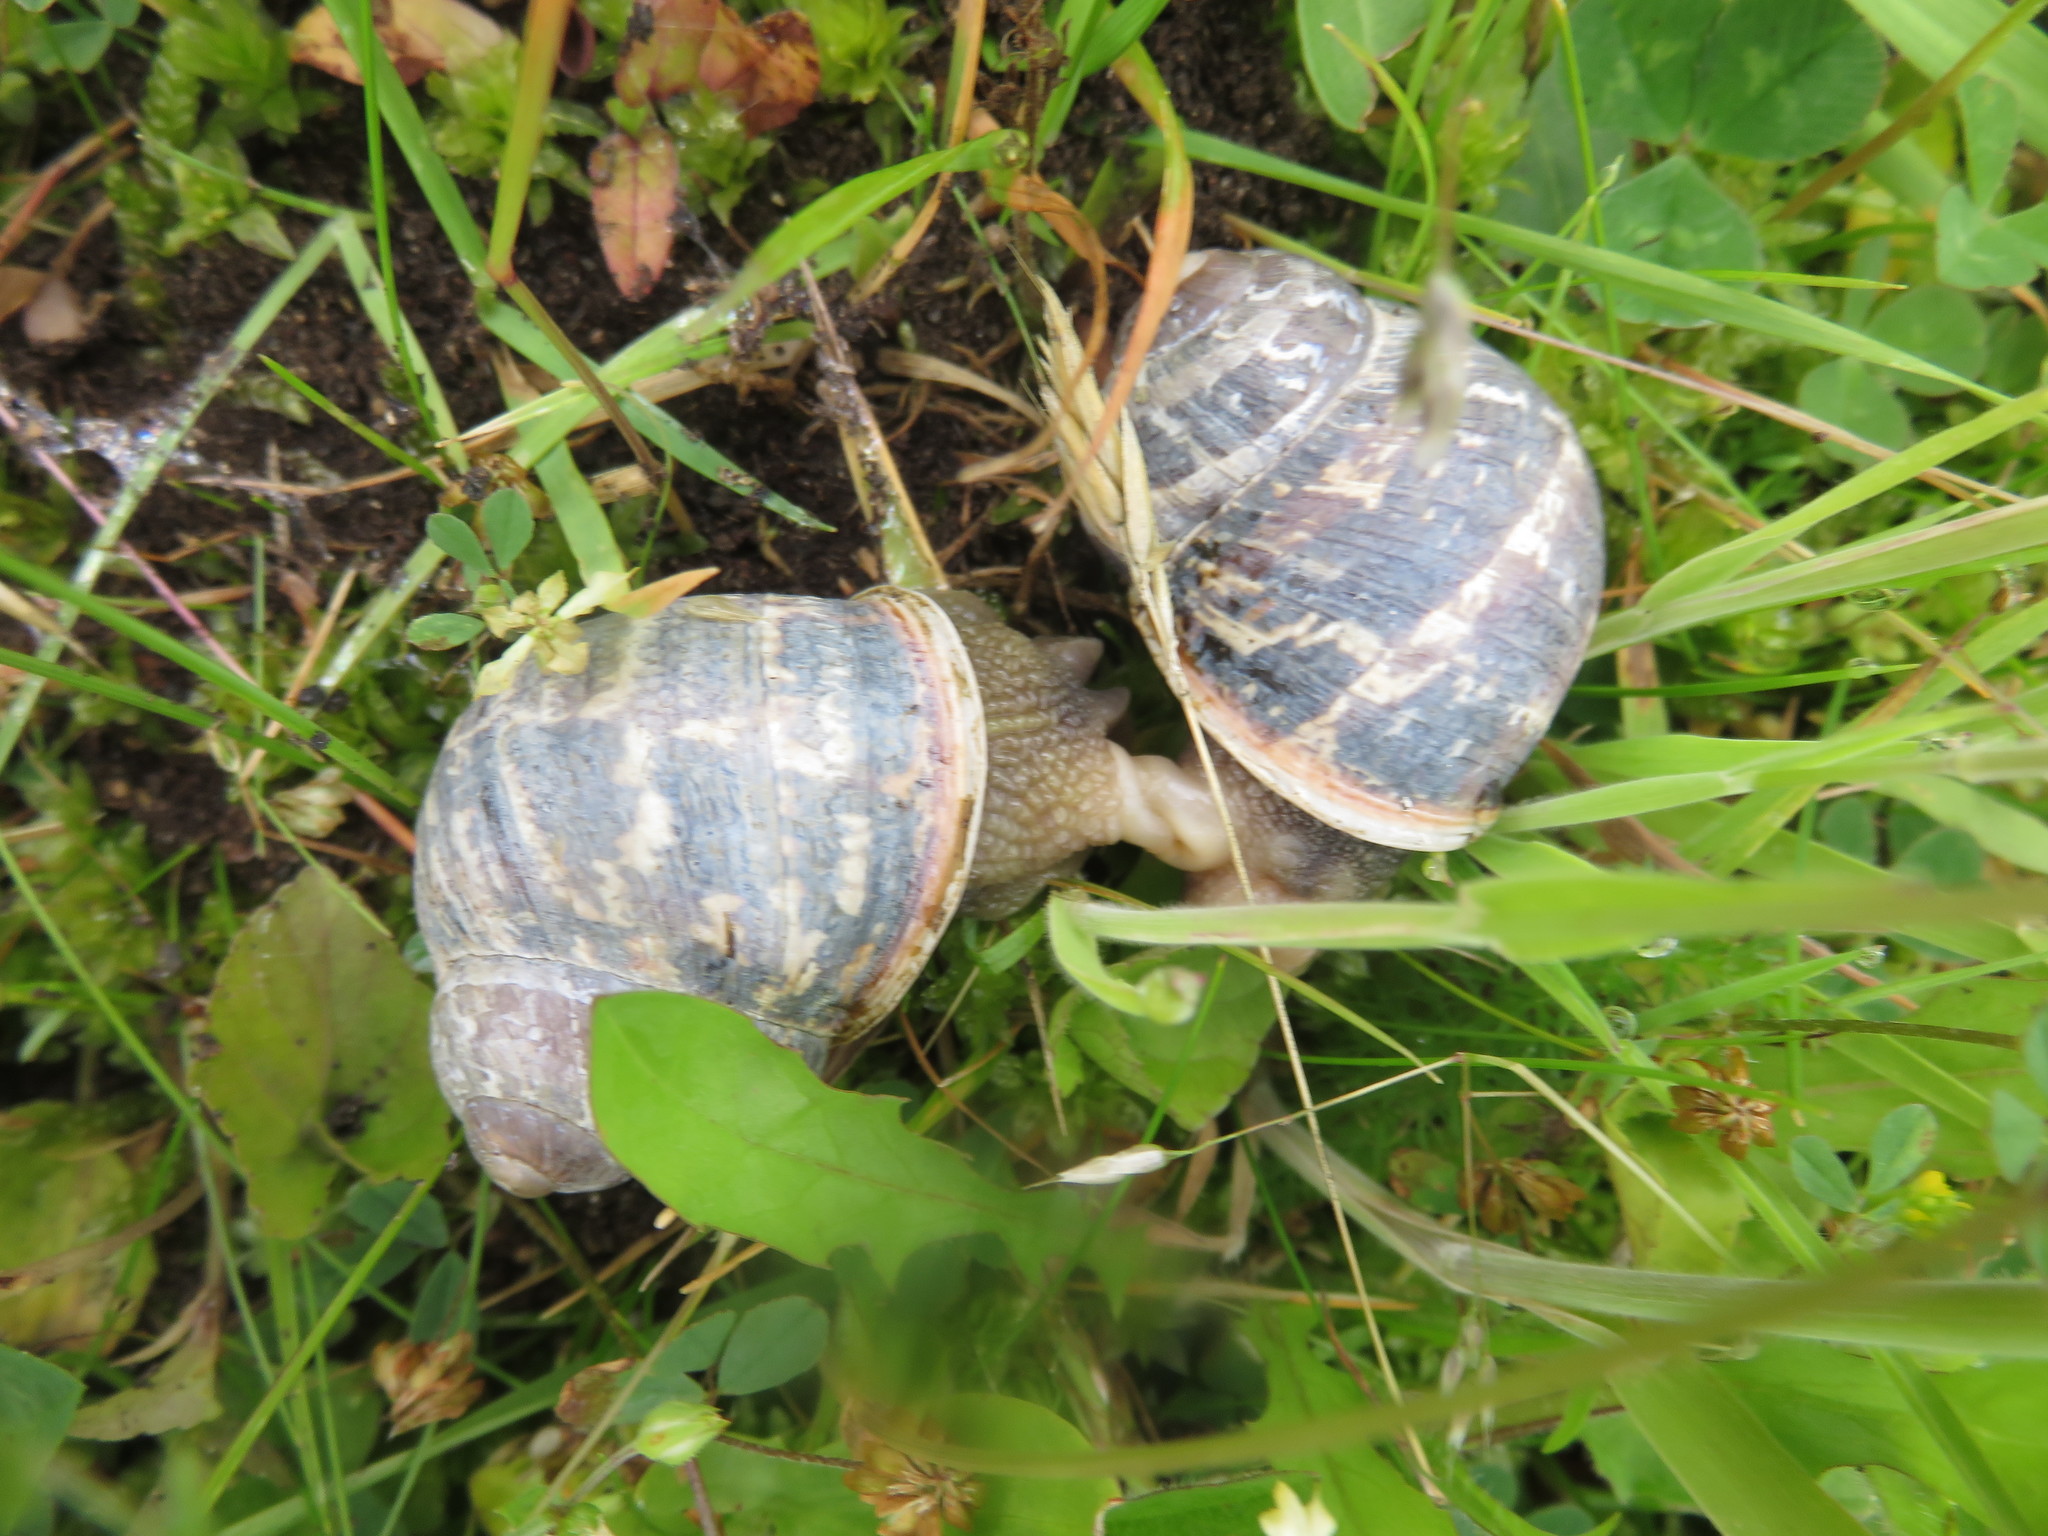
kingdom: Animalia
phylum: Mollusca
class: Gastropoda
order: Stylommatophora
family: Helicidae
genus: Cornu
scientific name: Cornu aspersum
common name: Brown garden snail
